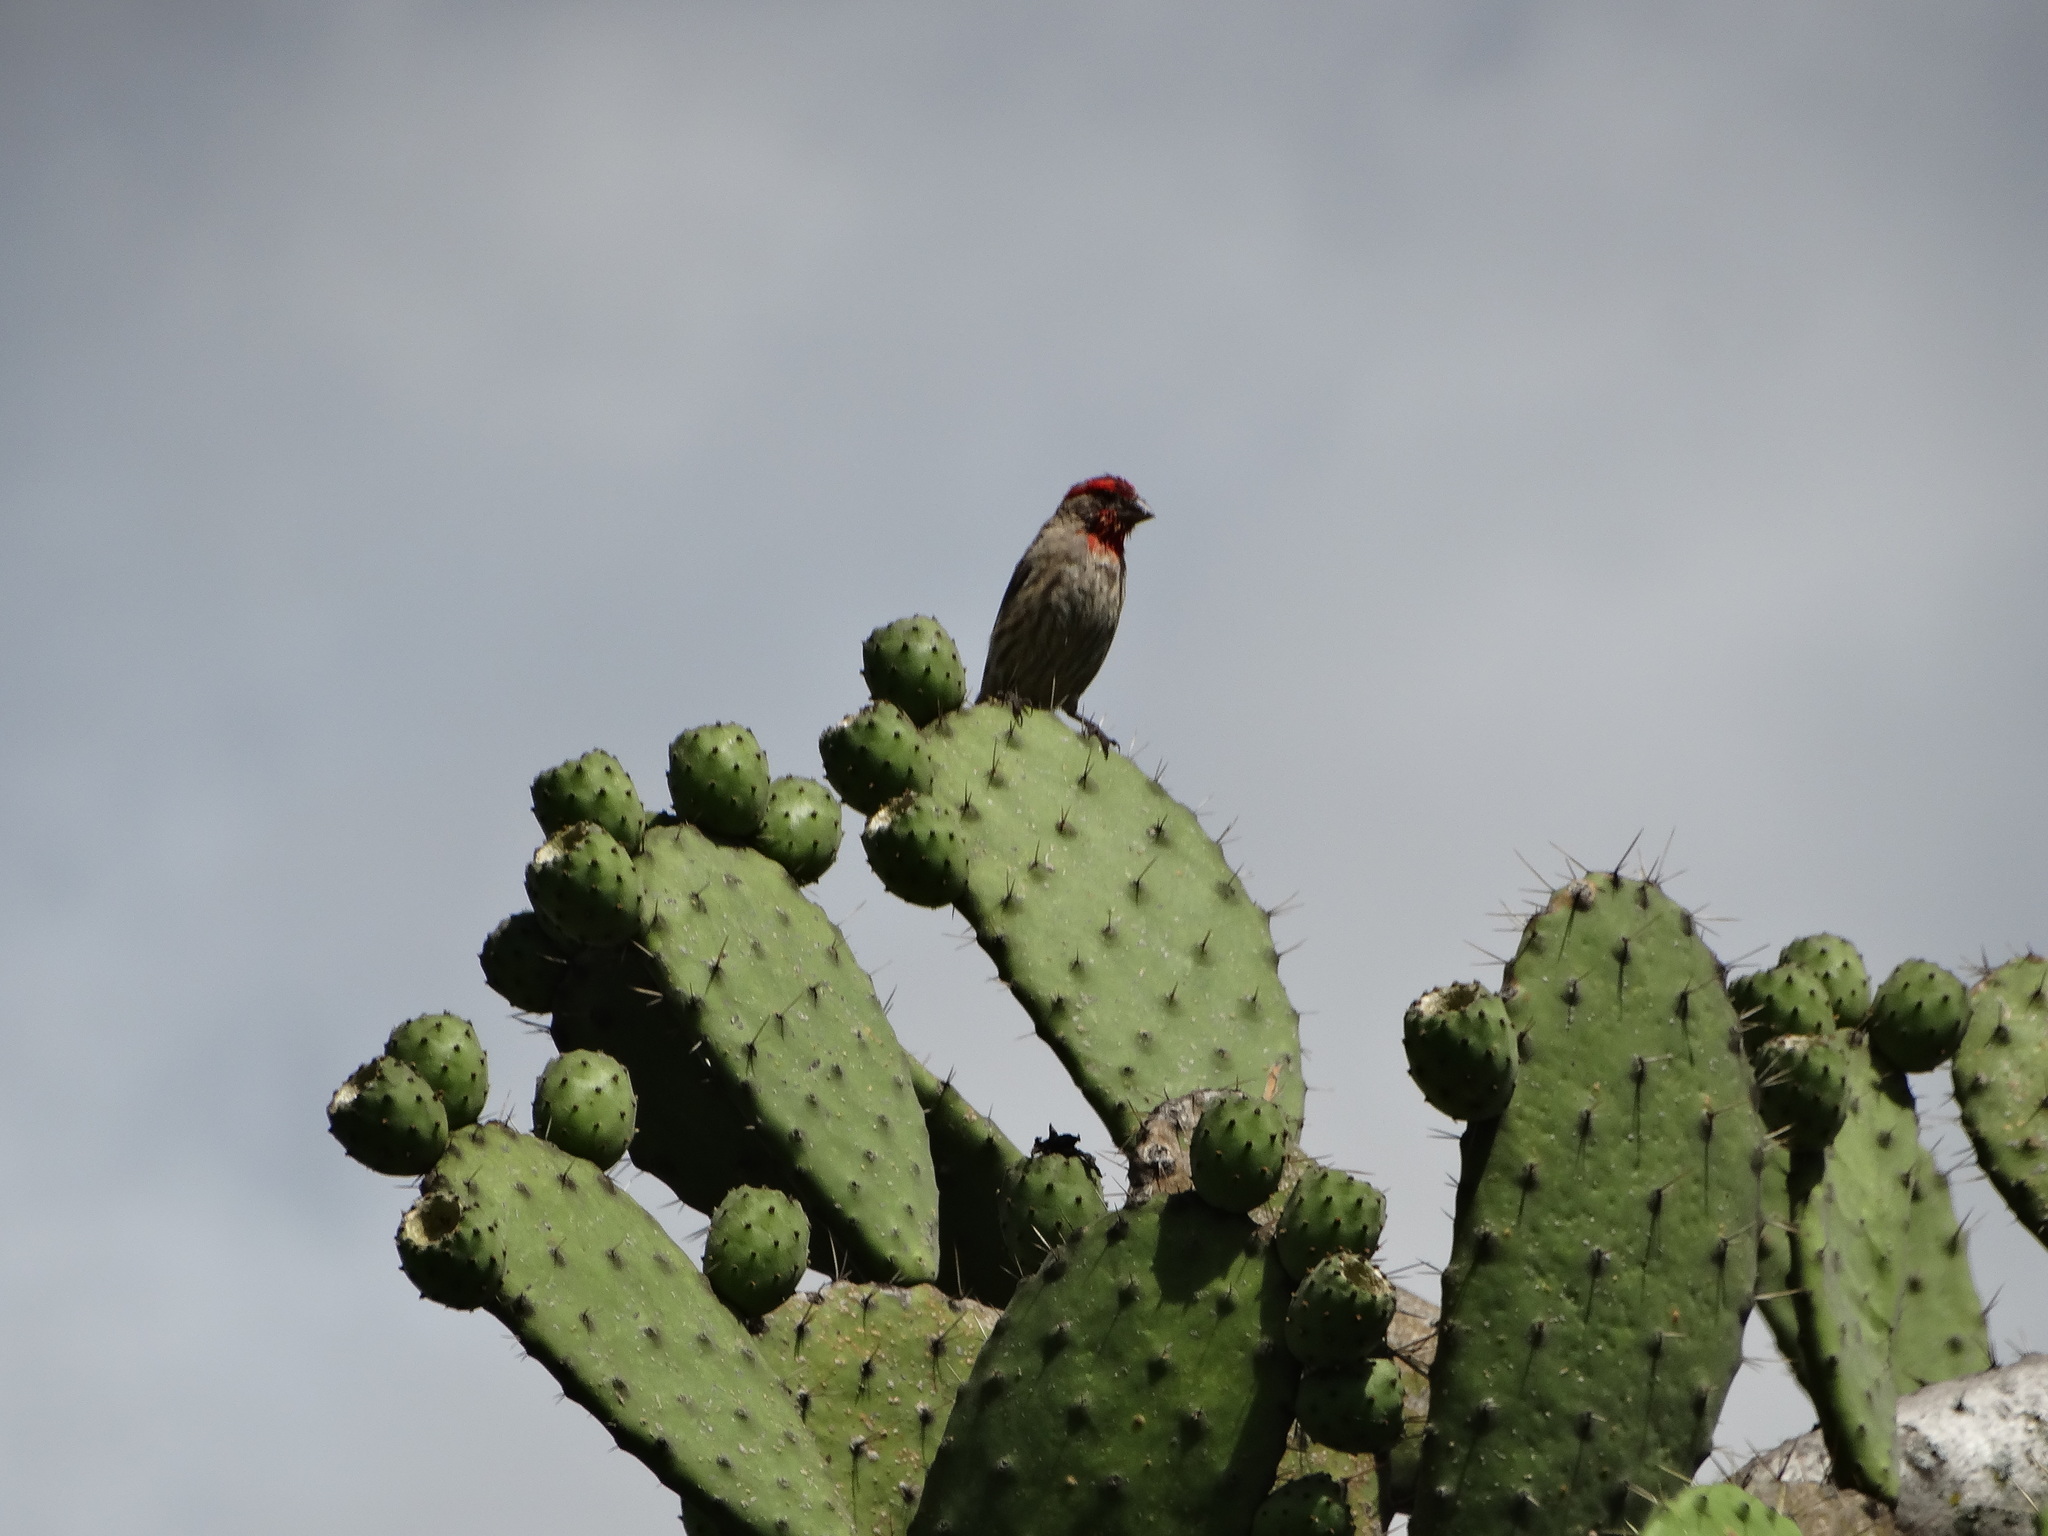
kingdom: Animalia
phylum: Chordata
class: Aves
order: Passeriformes
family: Fringillidae
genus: Haemorhous
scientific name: Haemorhous mexicanus
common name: House finch
